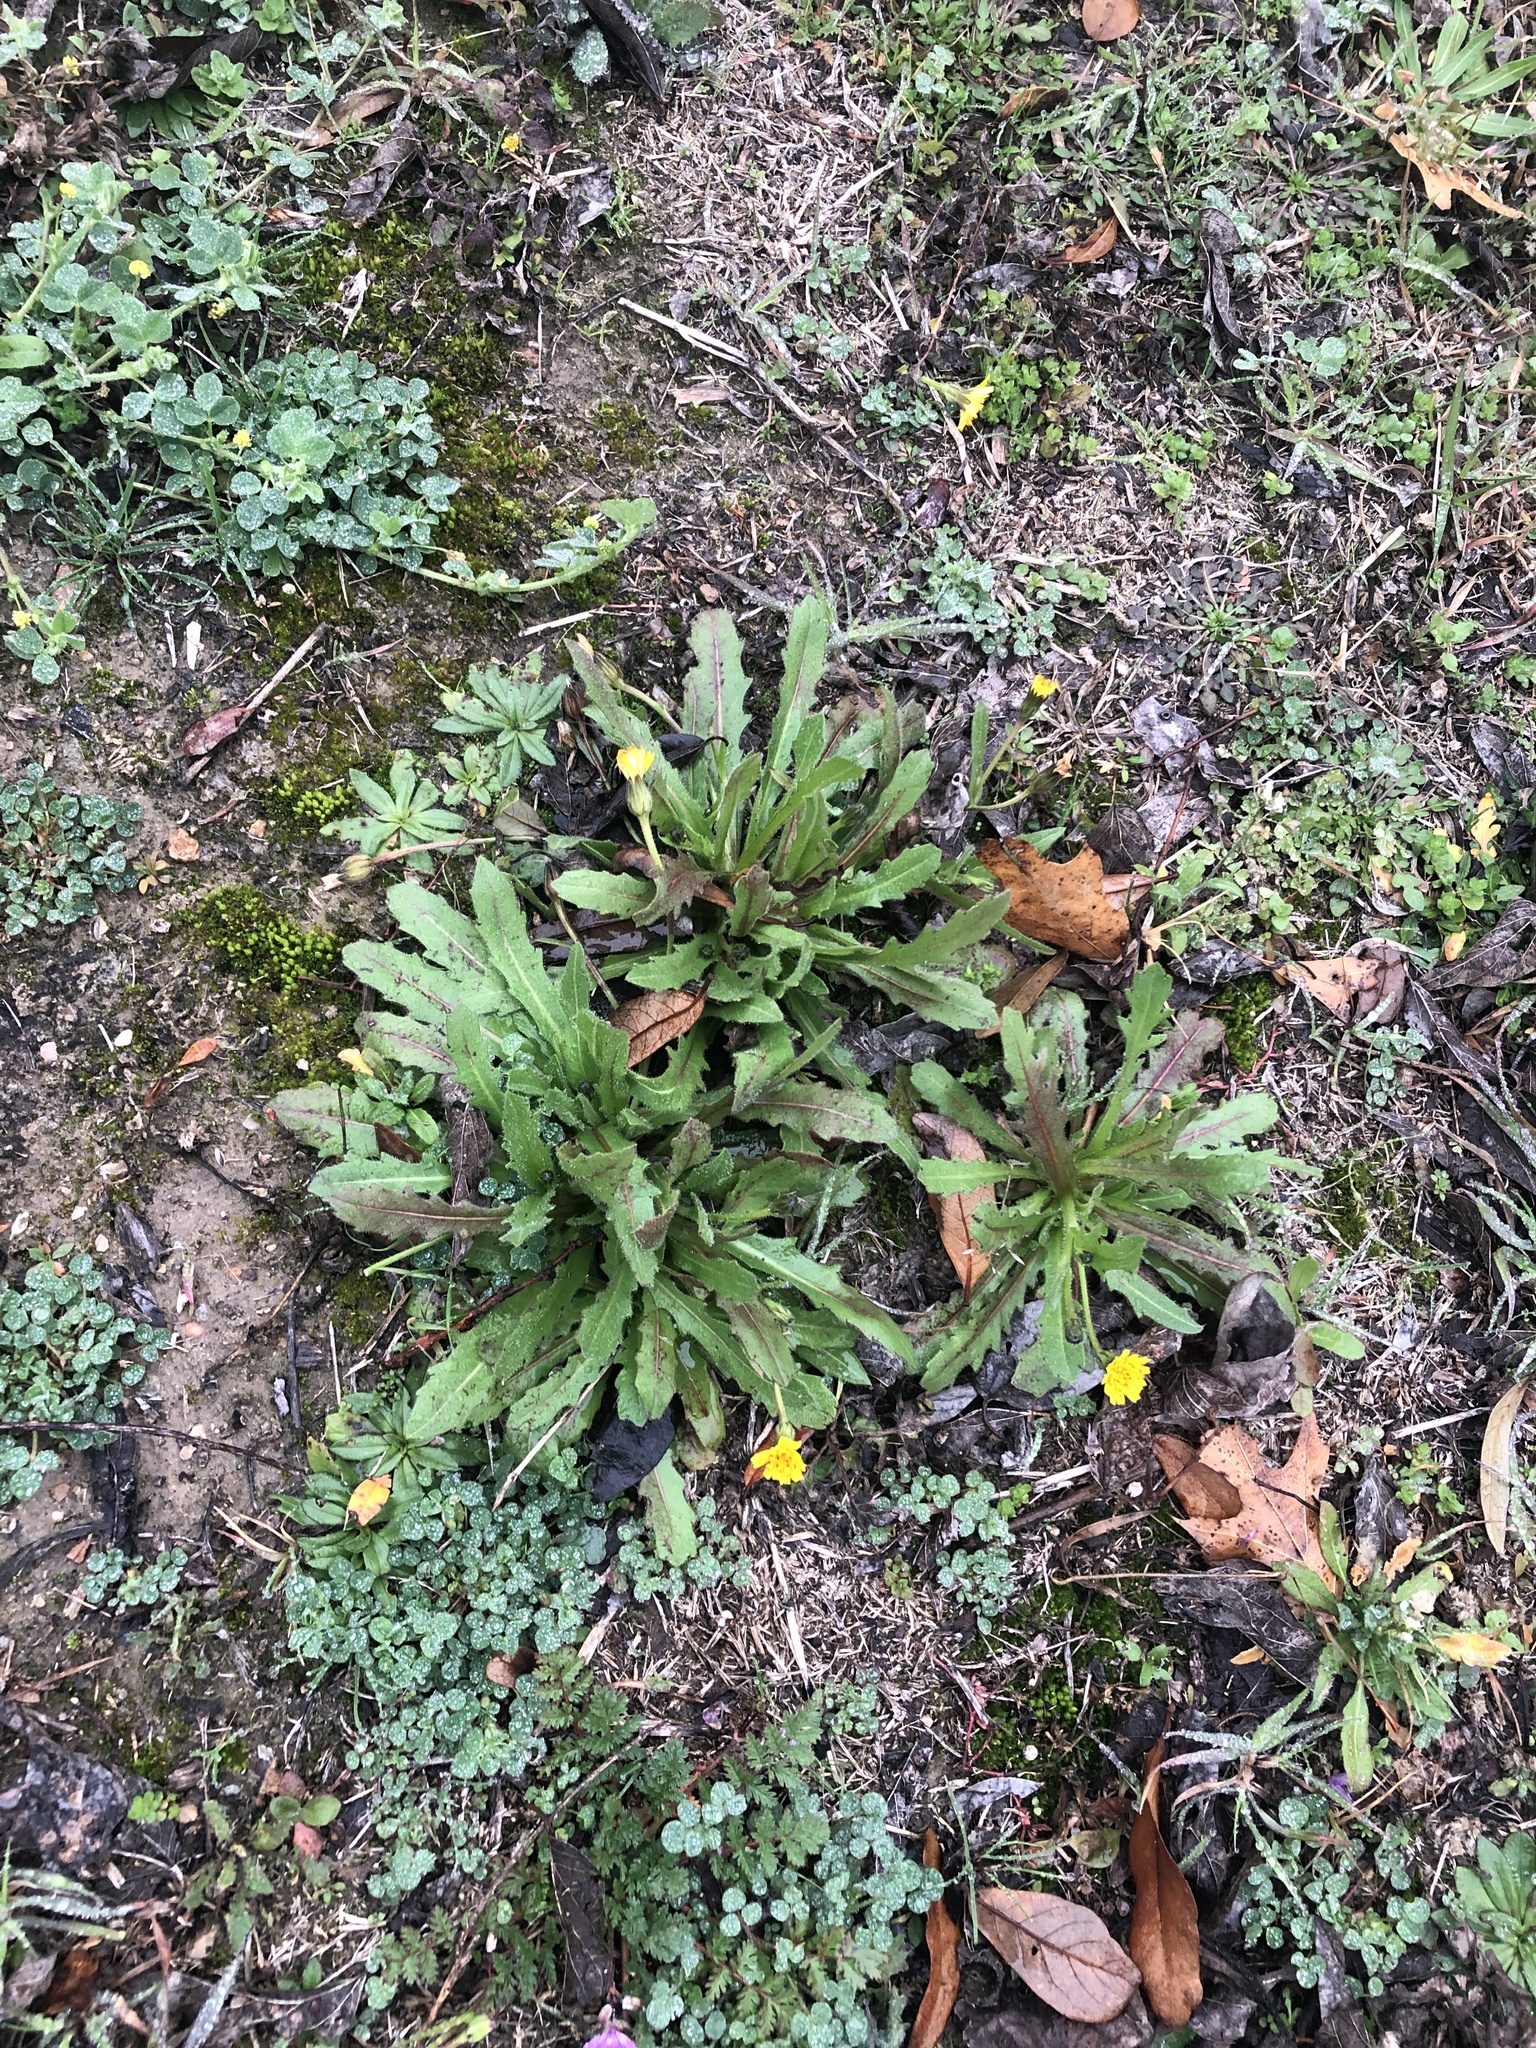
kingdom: Plantae
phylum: Tracheophyta
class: Magnoliopsida
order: Asterales
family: Asteraceae
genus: Hedypnois
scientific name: Hedypnois rhagadioloides
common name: Cretan weed
